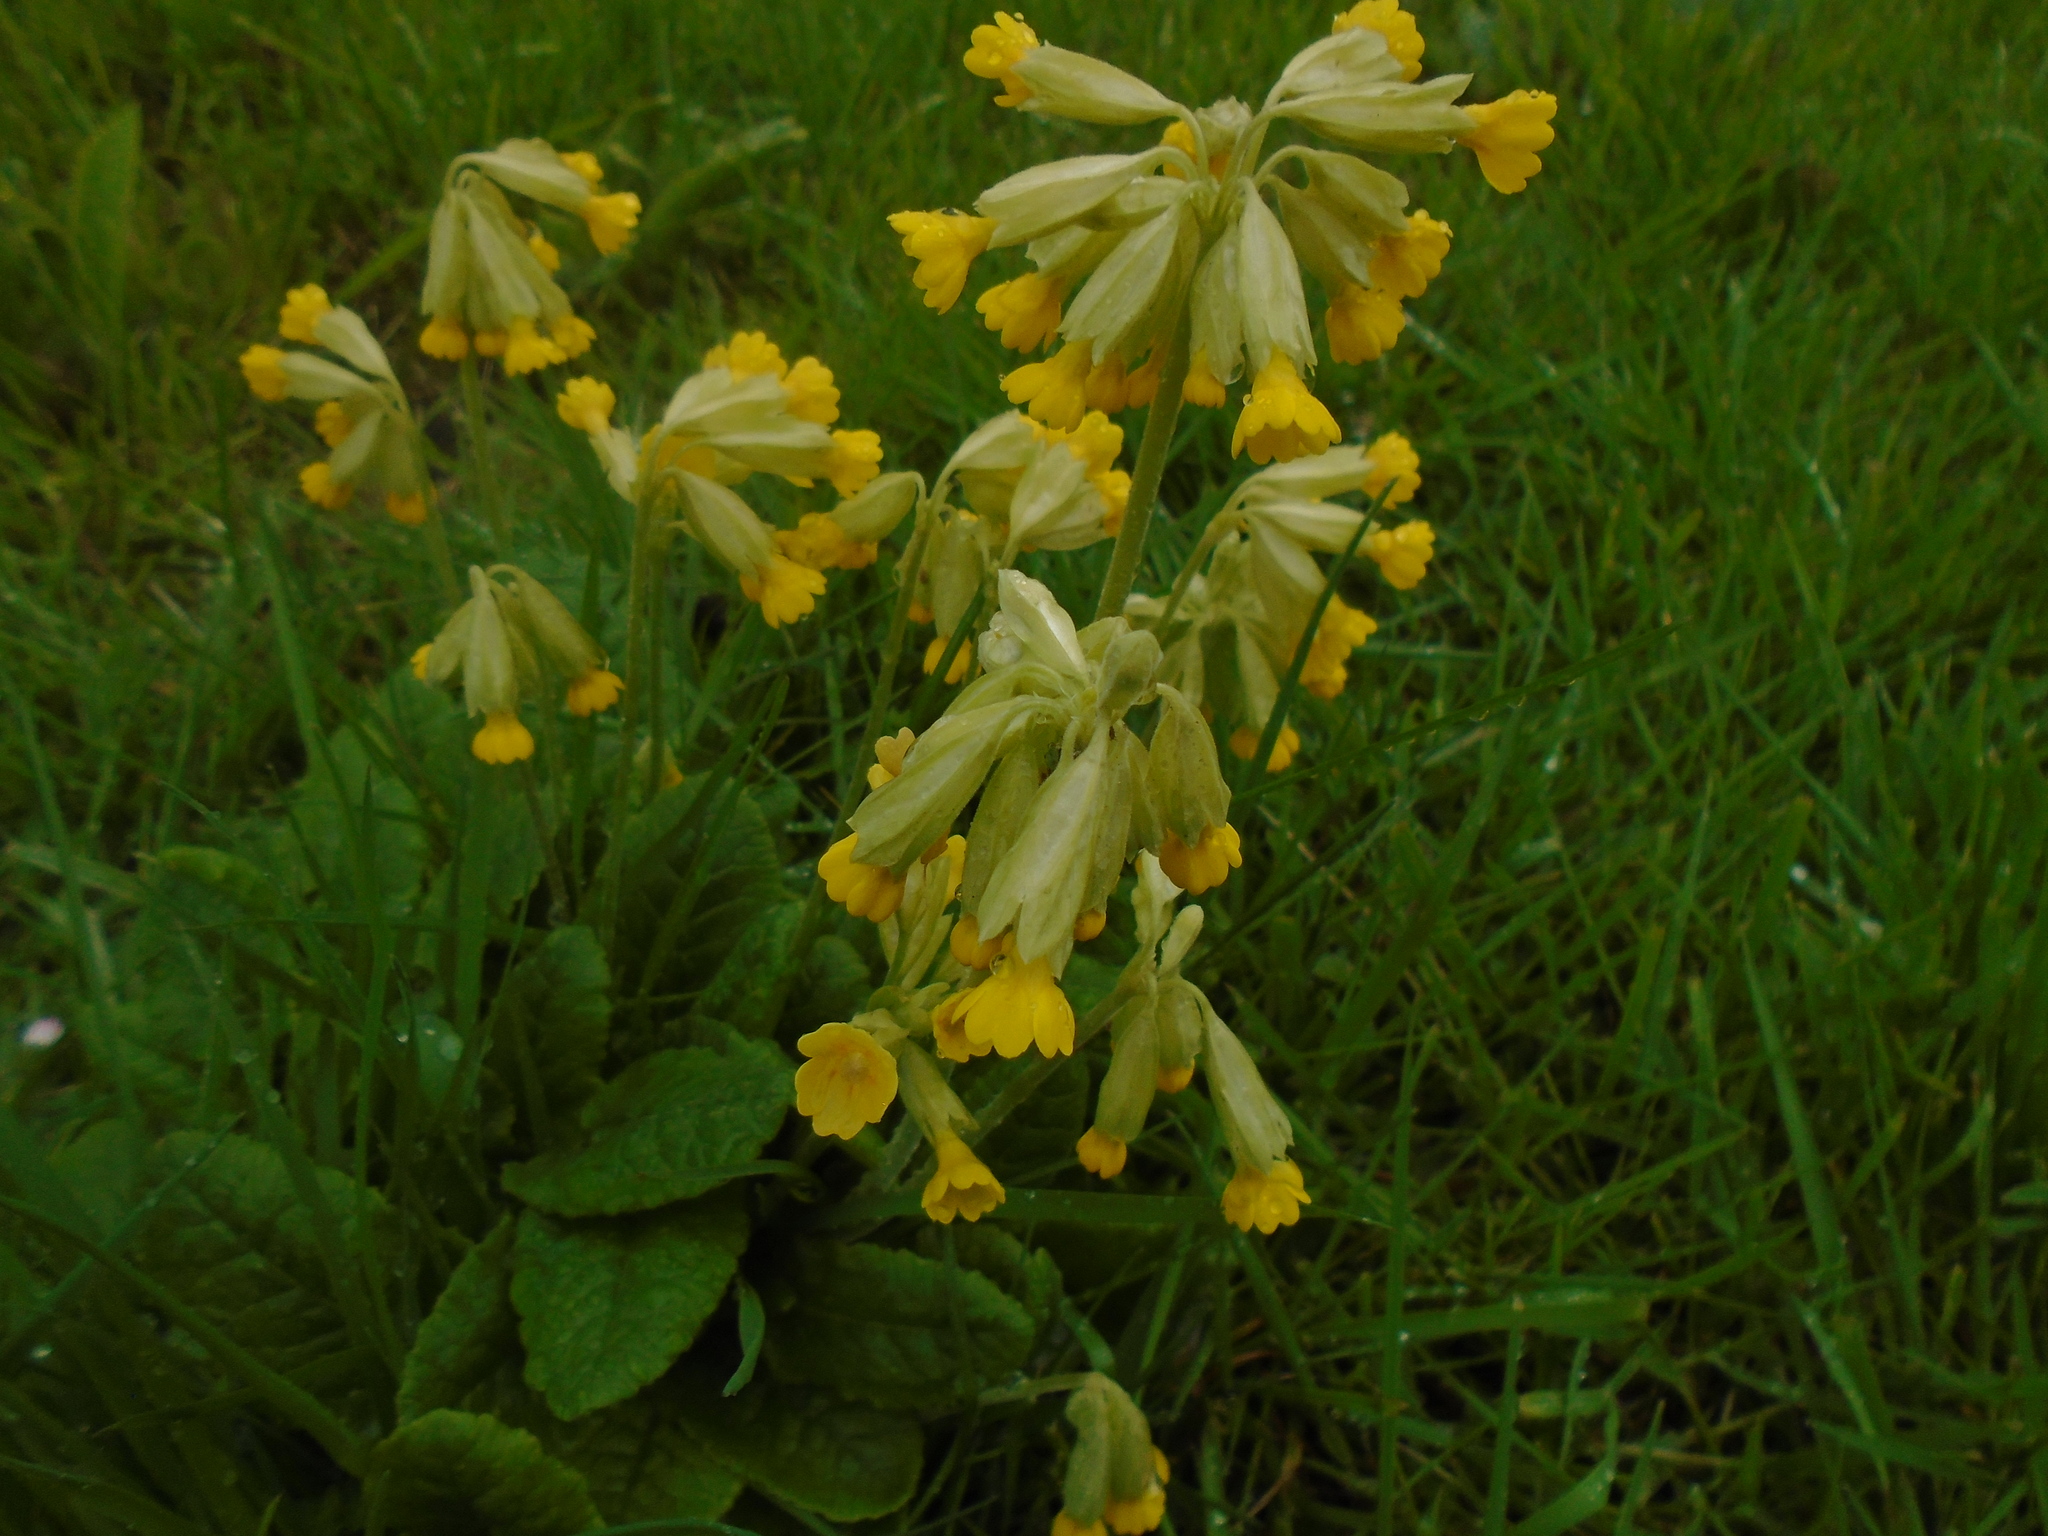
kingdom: Plantae
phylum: Tracheophyta
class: Magnoliopsida
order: Ericales
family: Primulaceae
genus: Primula
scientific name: Primula veris
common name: Cowslip
